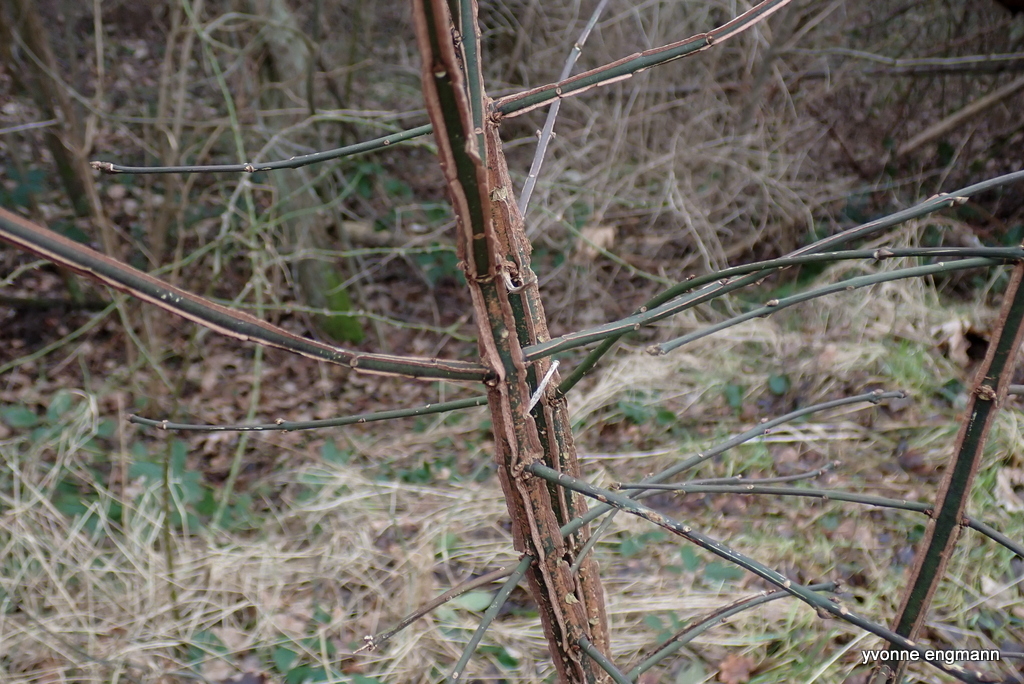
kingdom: Plantae
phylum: Tracheophyta
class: Magnoliopsida
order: Celastrales
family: Celastraceae
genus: Euonymus
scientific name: Euonymus europaeus
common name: Spindle
